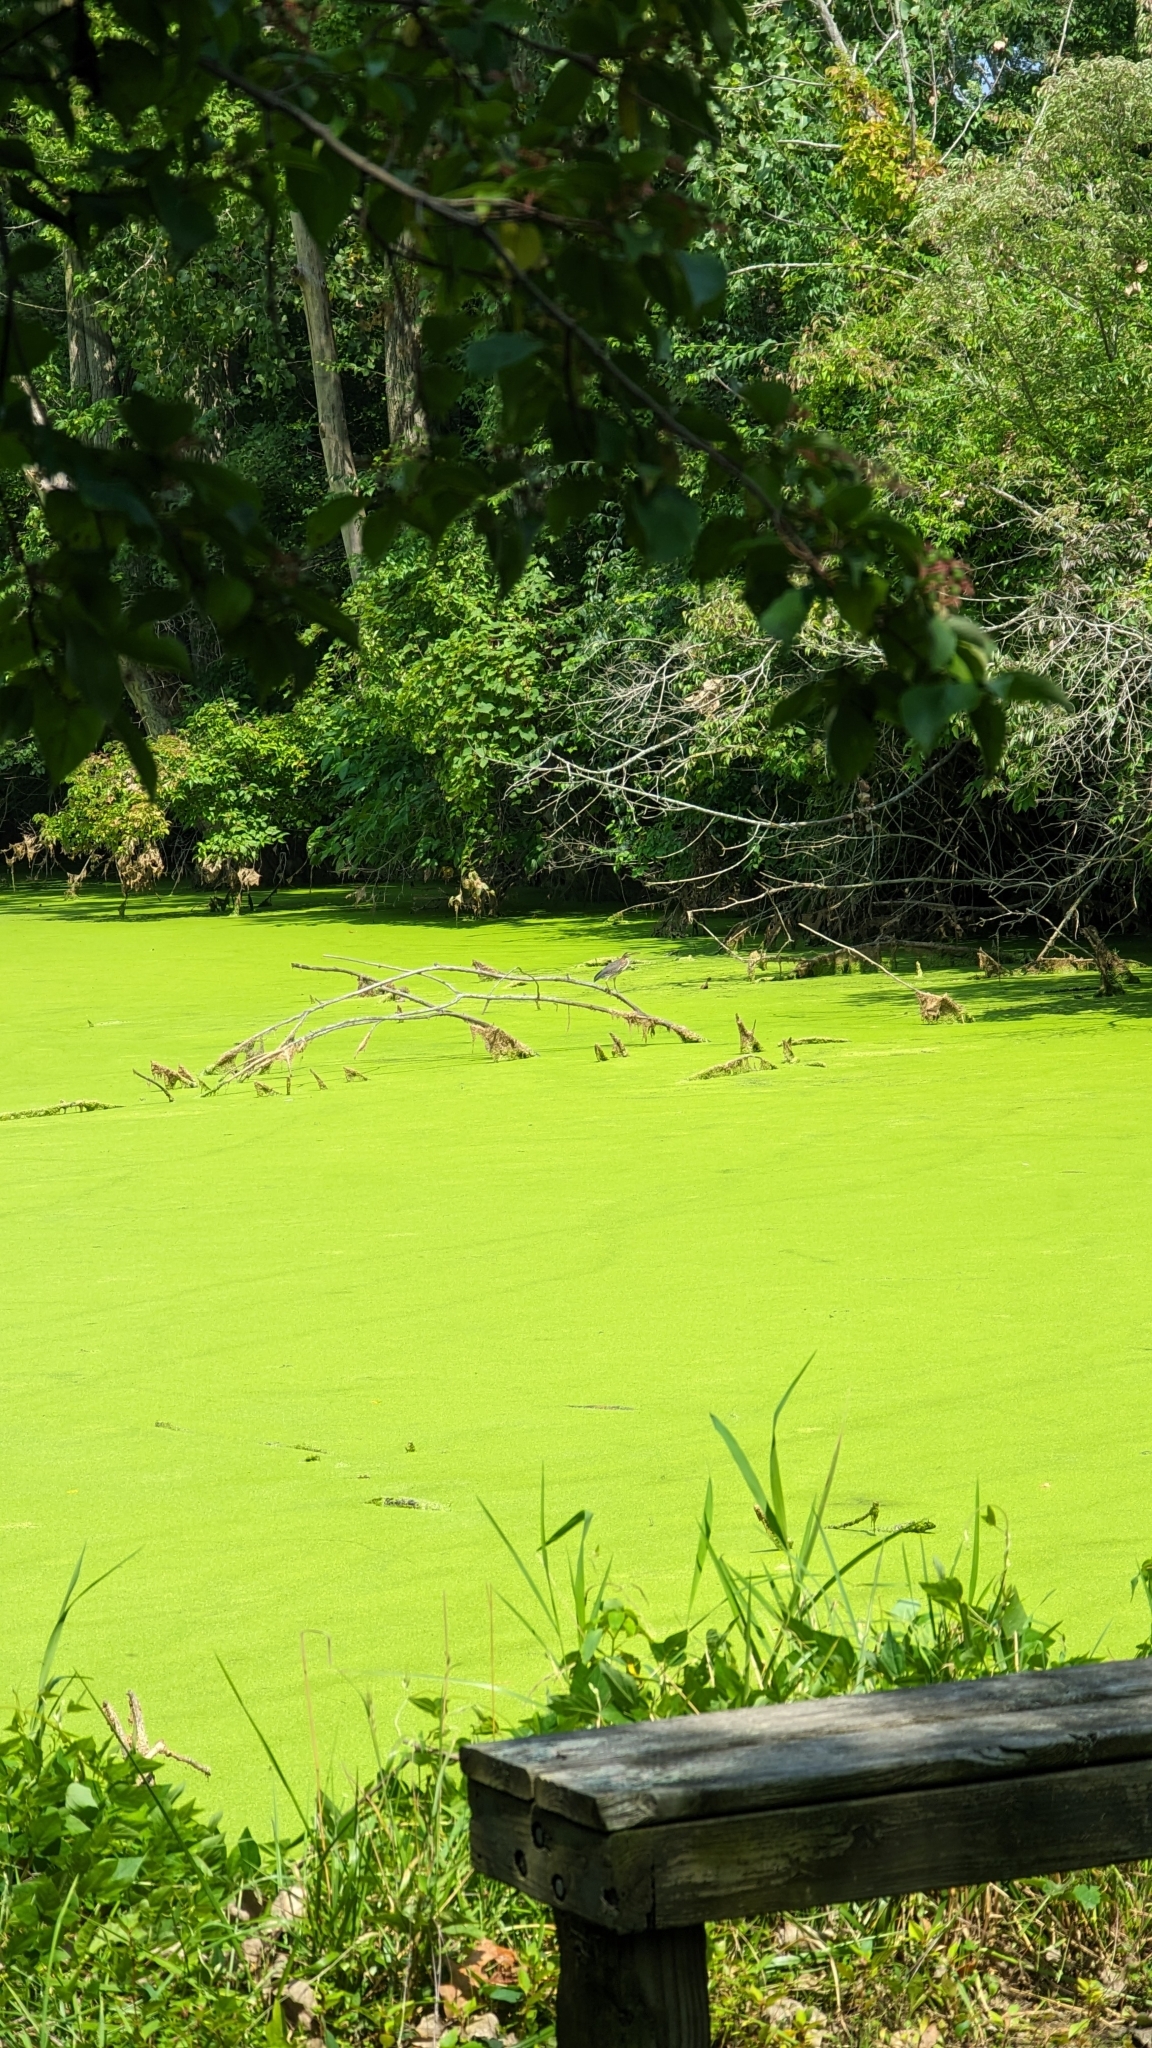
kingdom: Animalia
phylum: Chordata
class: Aves
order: Pelecaniformes
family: Ardeidae
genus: Butorides
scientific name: Butorides virescens
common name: Green heron
